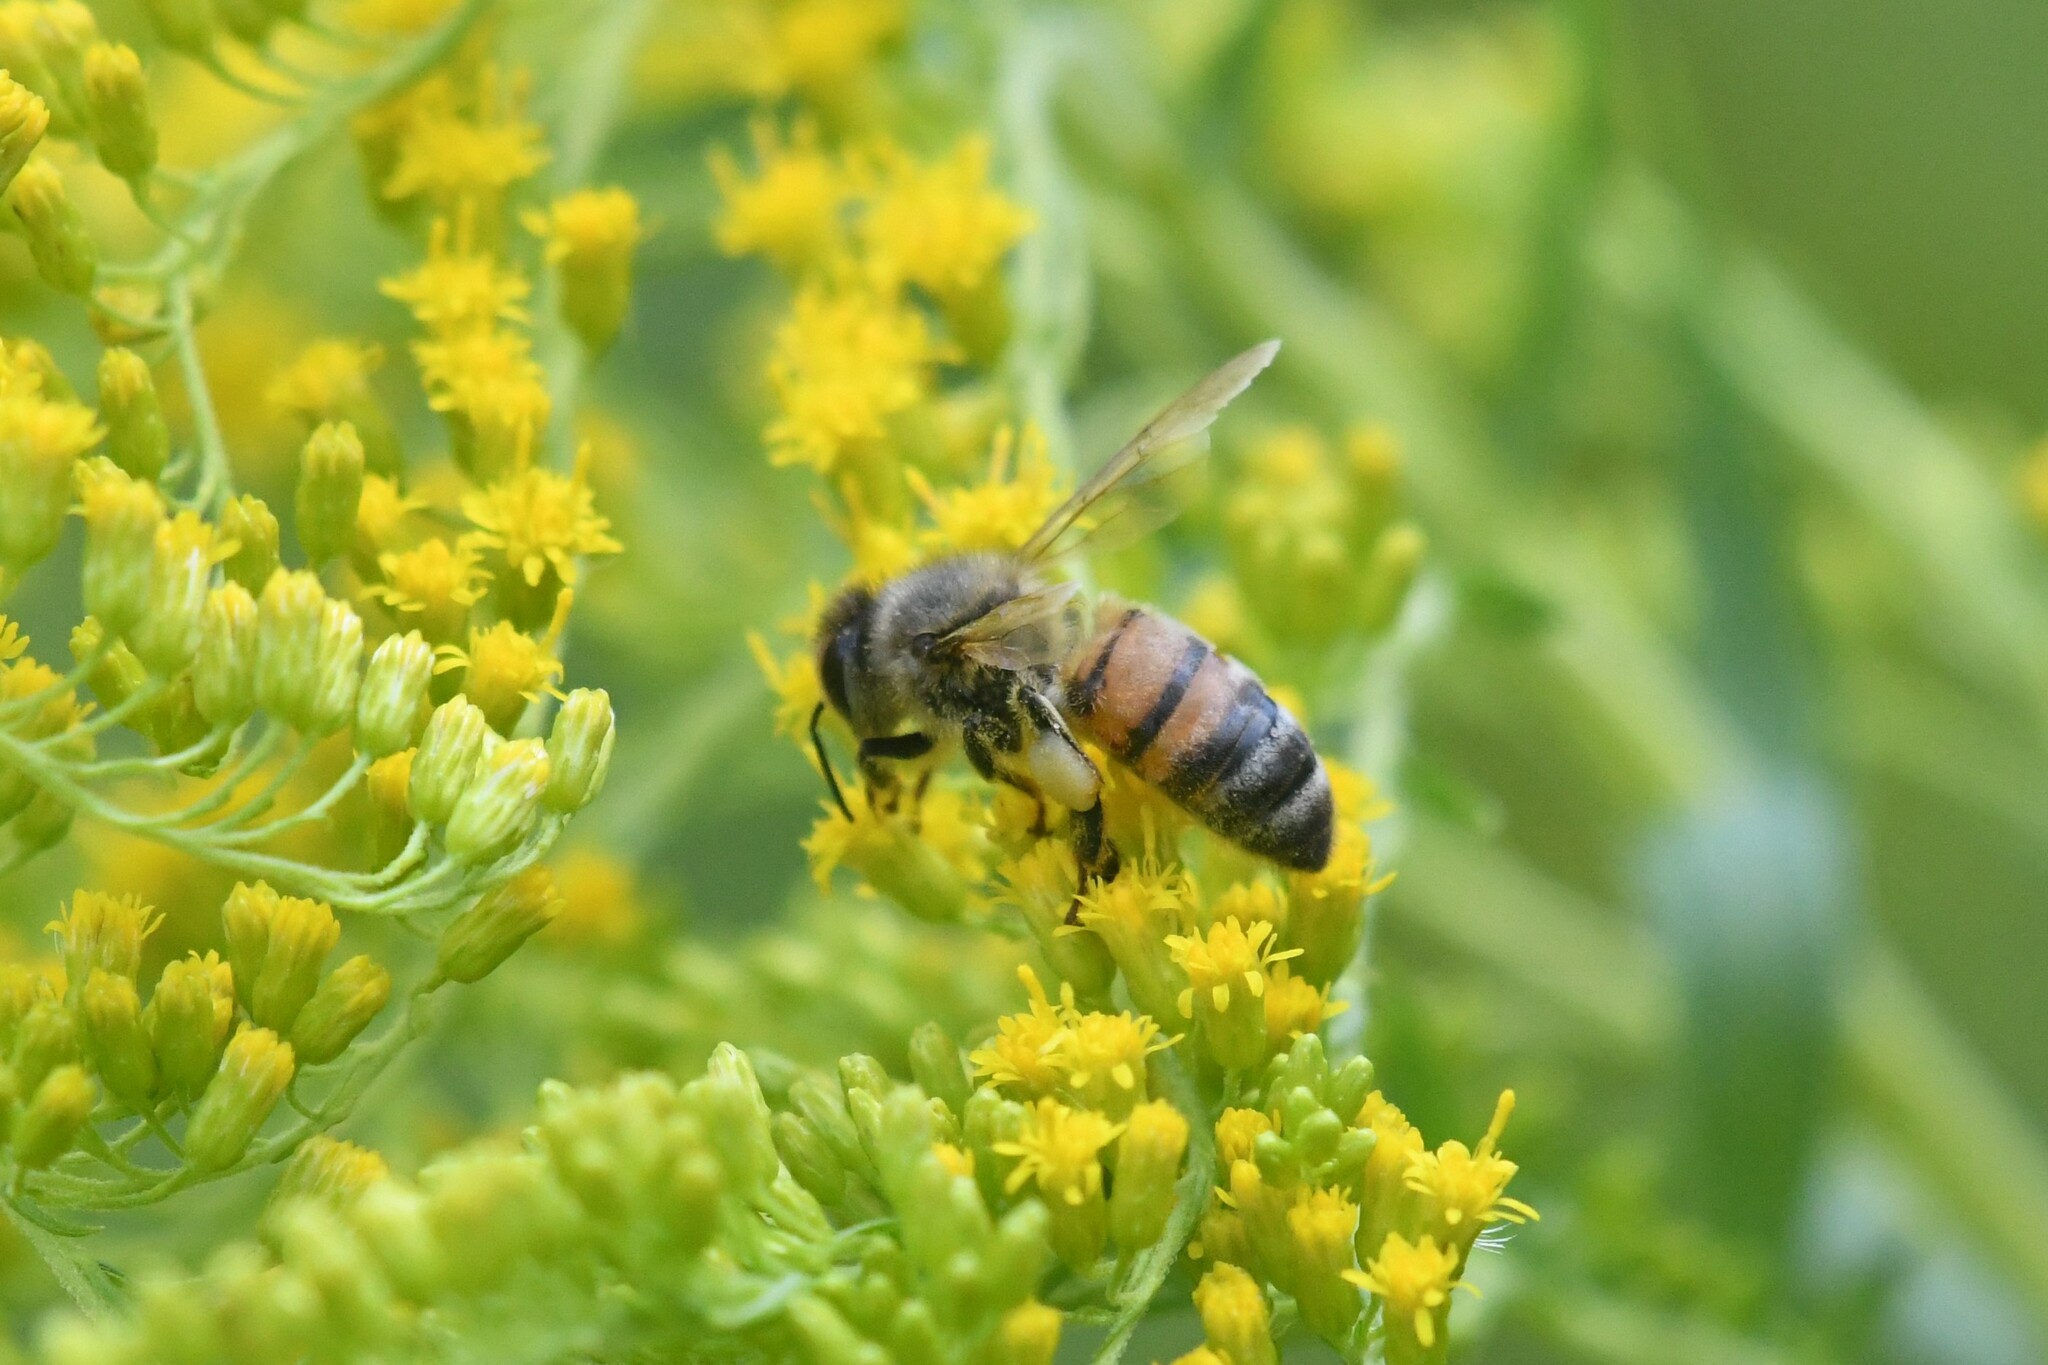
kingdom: Animalia
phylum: Arthropoda
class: Insecta
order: Hymenoptera
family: Apidae
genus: Apis
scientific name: Apis mellifera
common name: Honey bee
